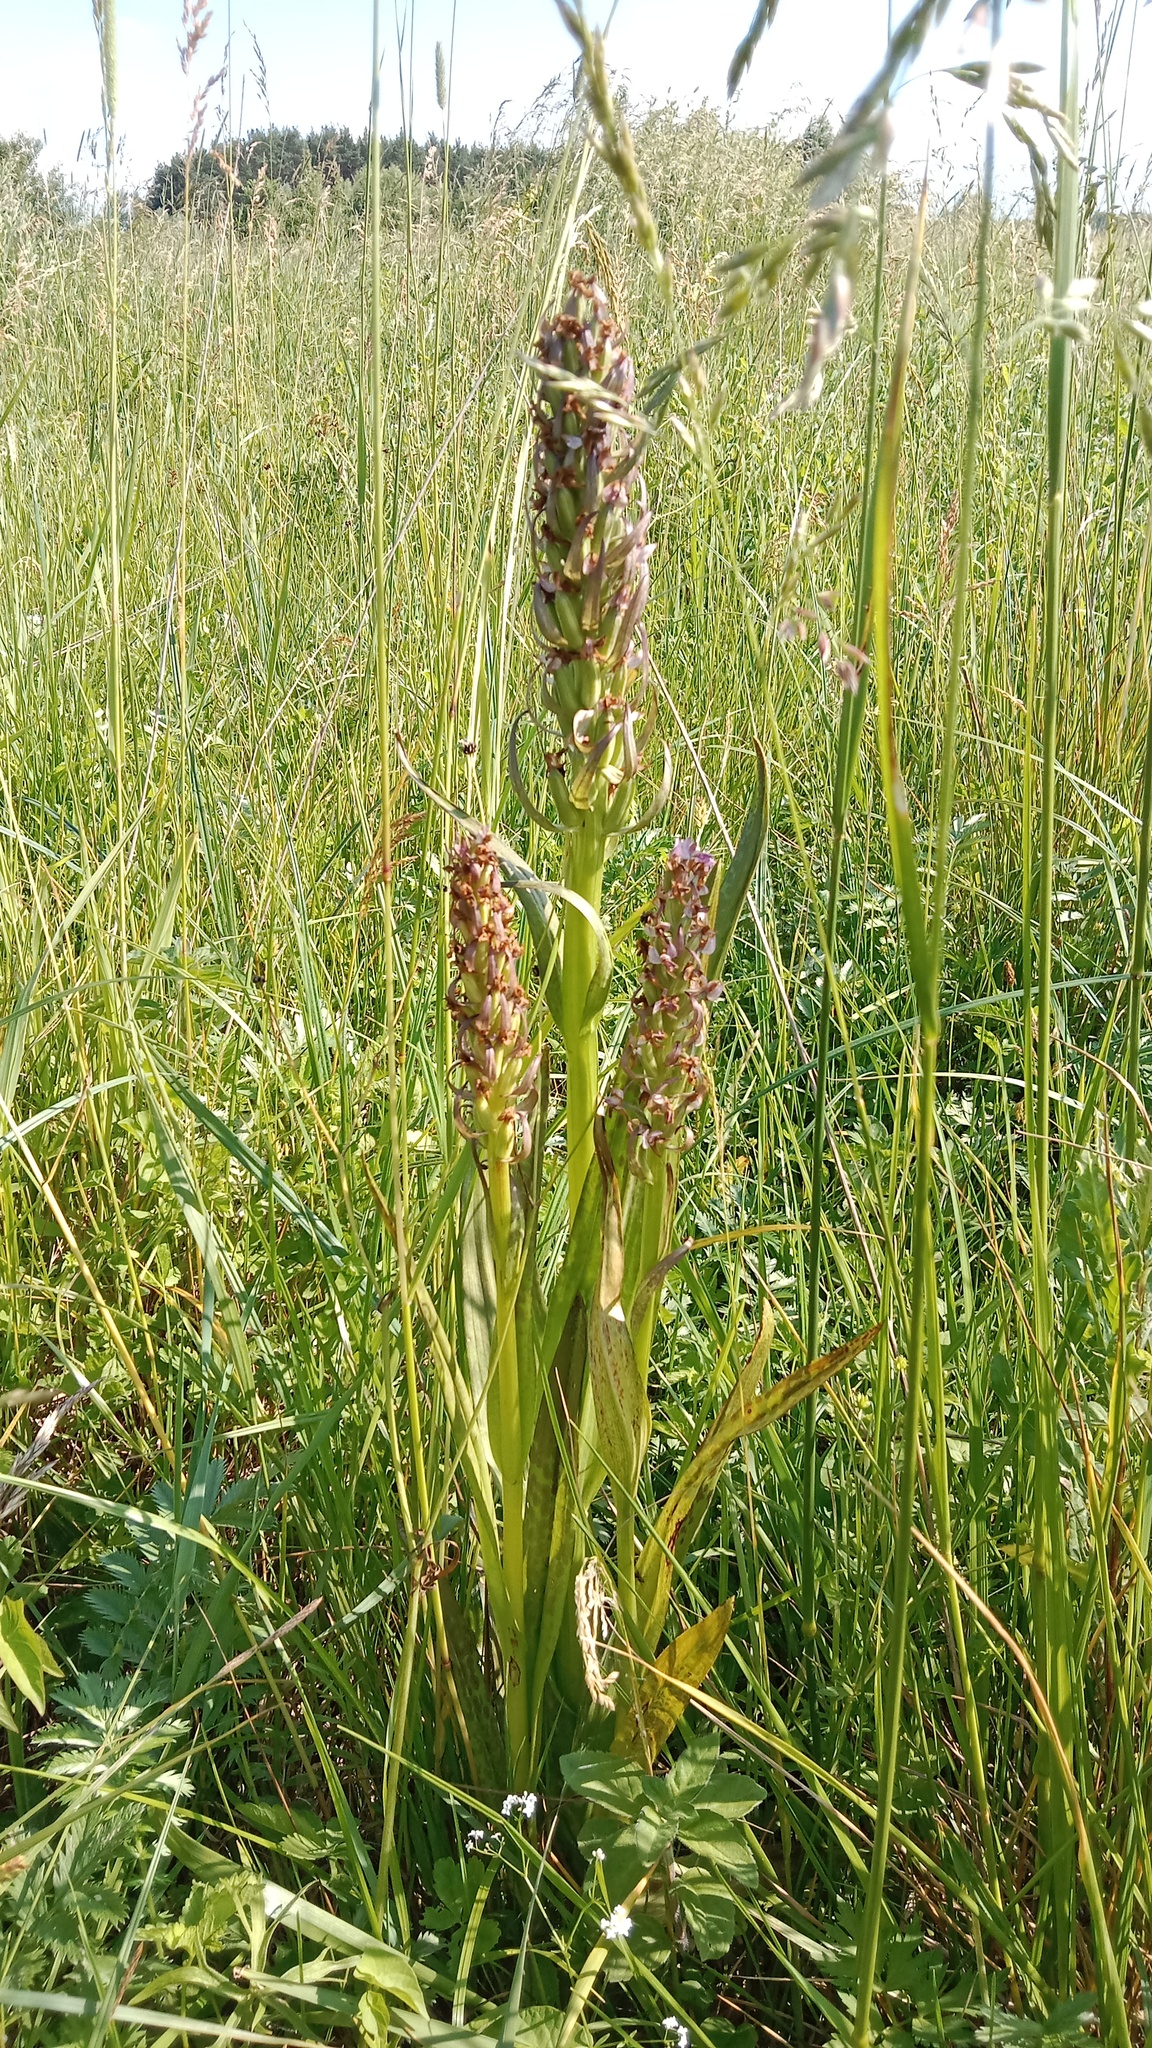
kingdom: Plantae
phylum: Tracheophyta
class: Liliopsida
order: Asparagales
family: Orchidaceae
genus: Dactylorhiza
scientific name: Dactylorhiza incarnata
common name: Early marsh-orchid
